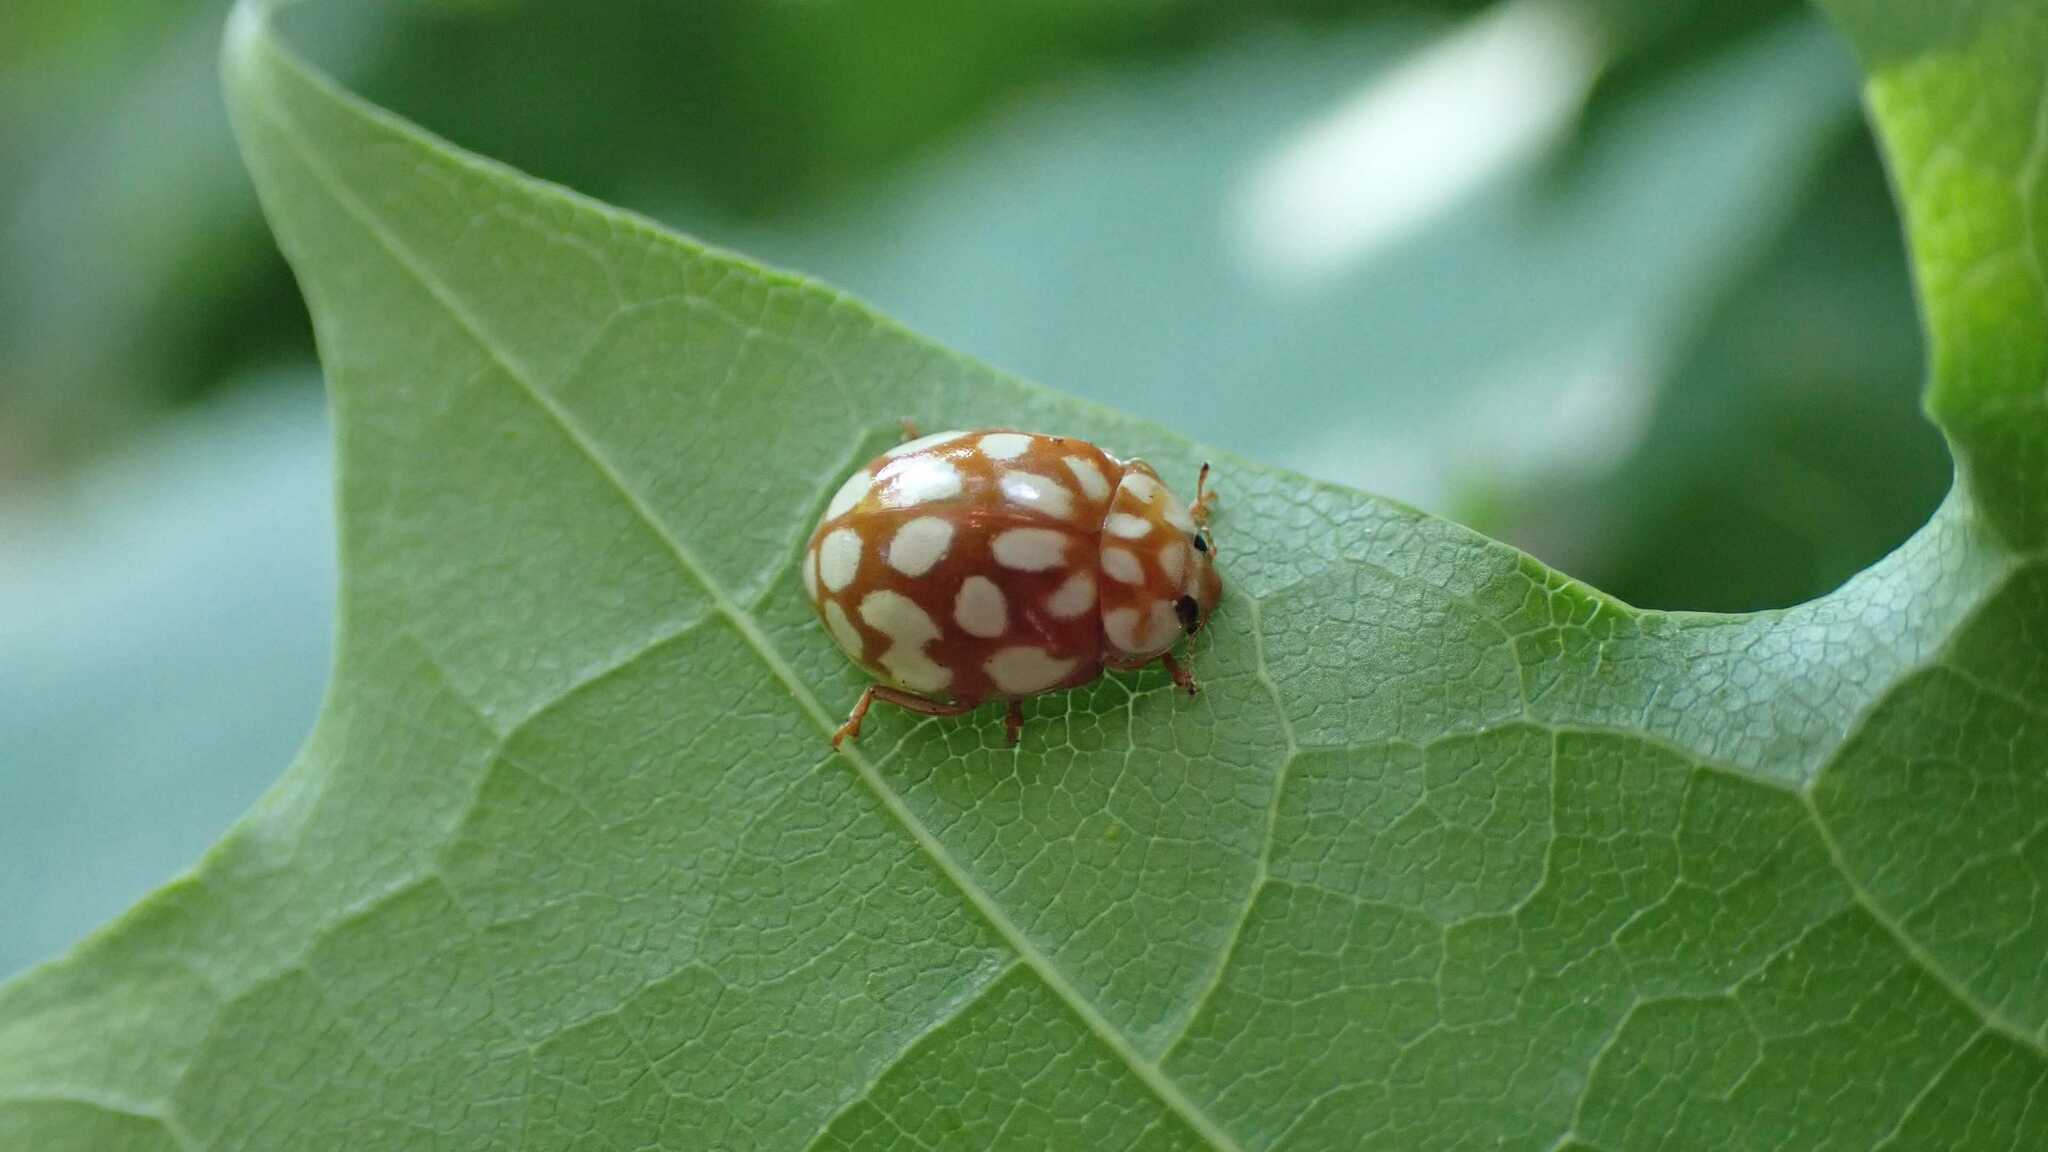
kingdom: Animalia
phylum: Arthropoda
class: Insecta
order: Coleoptera
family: Coccinellidae
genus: Sospita
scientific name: Sospita vigintiguttata
